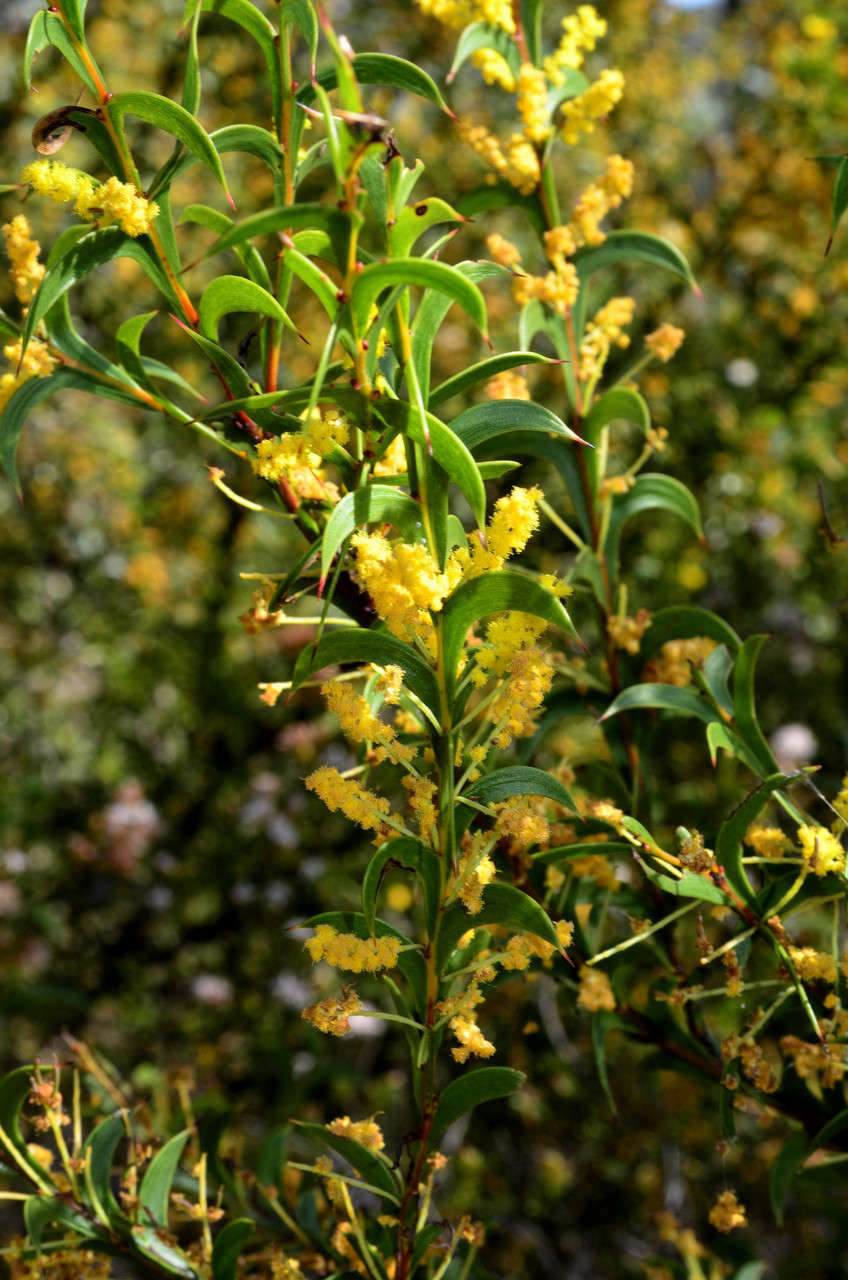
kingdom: Plantae
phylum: Tracheophyta
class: Magnoliopsida
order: Fabales
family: Fabaceae
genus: Acacia
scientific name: Acacia triptera
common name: Spur-wing wattle
